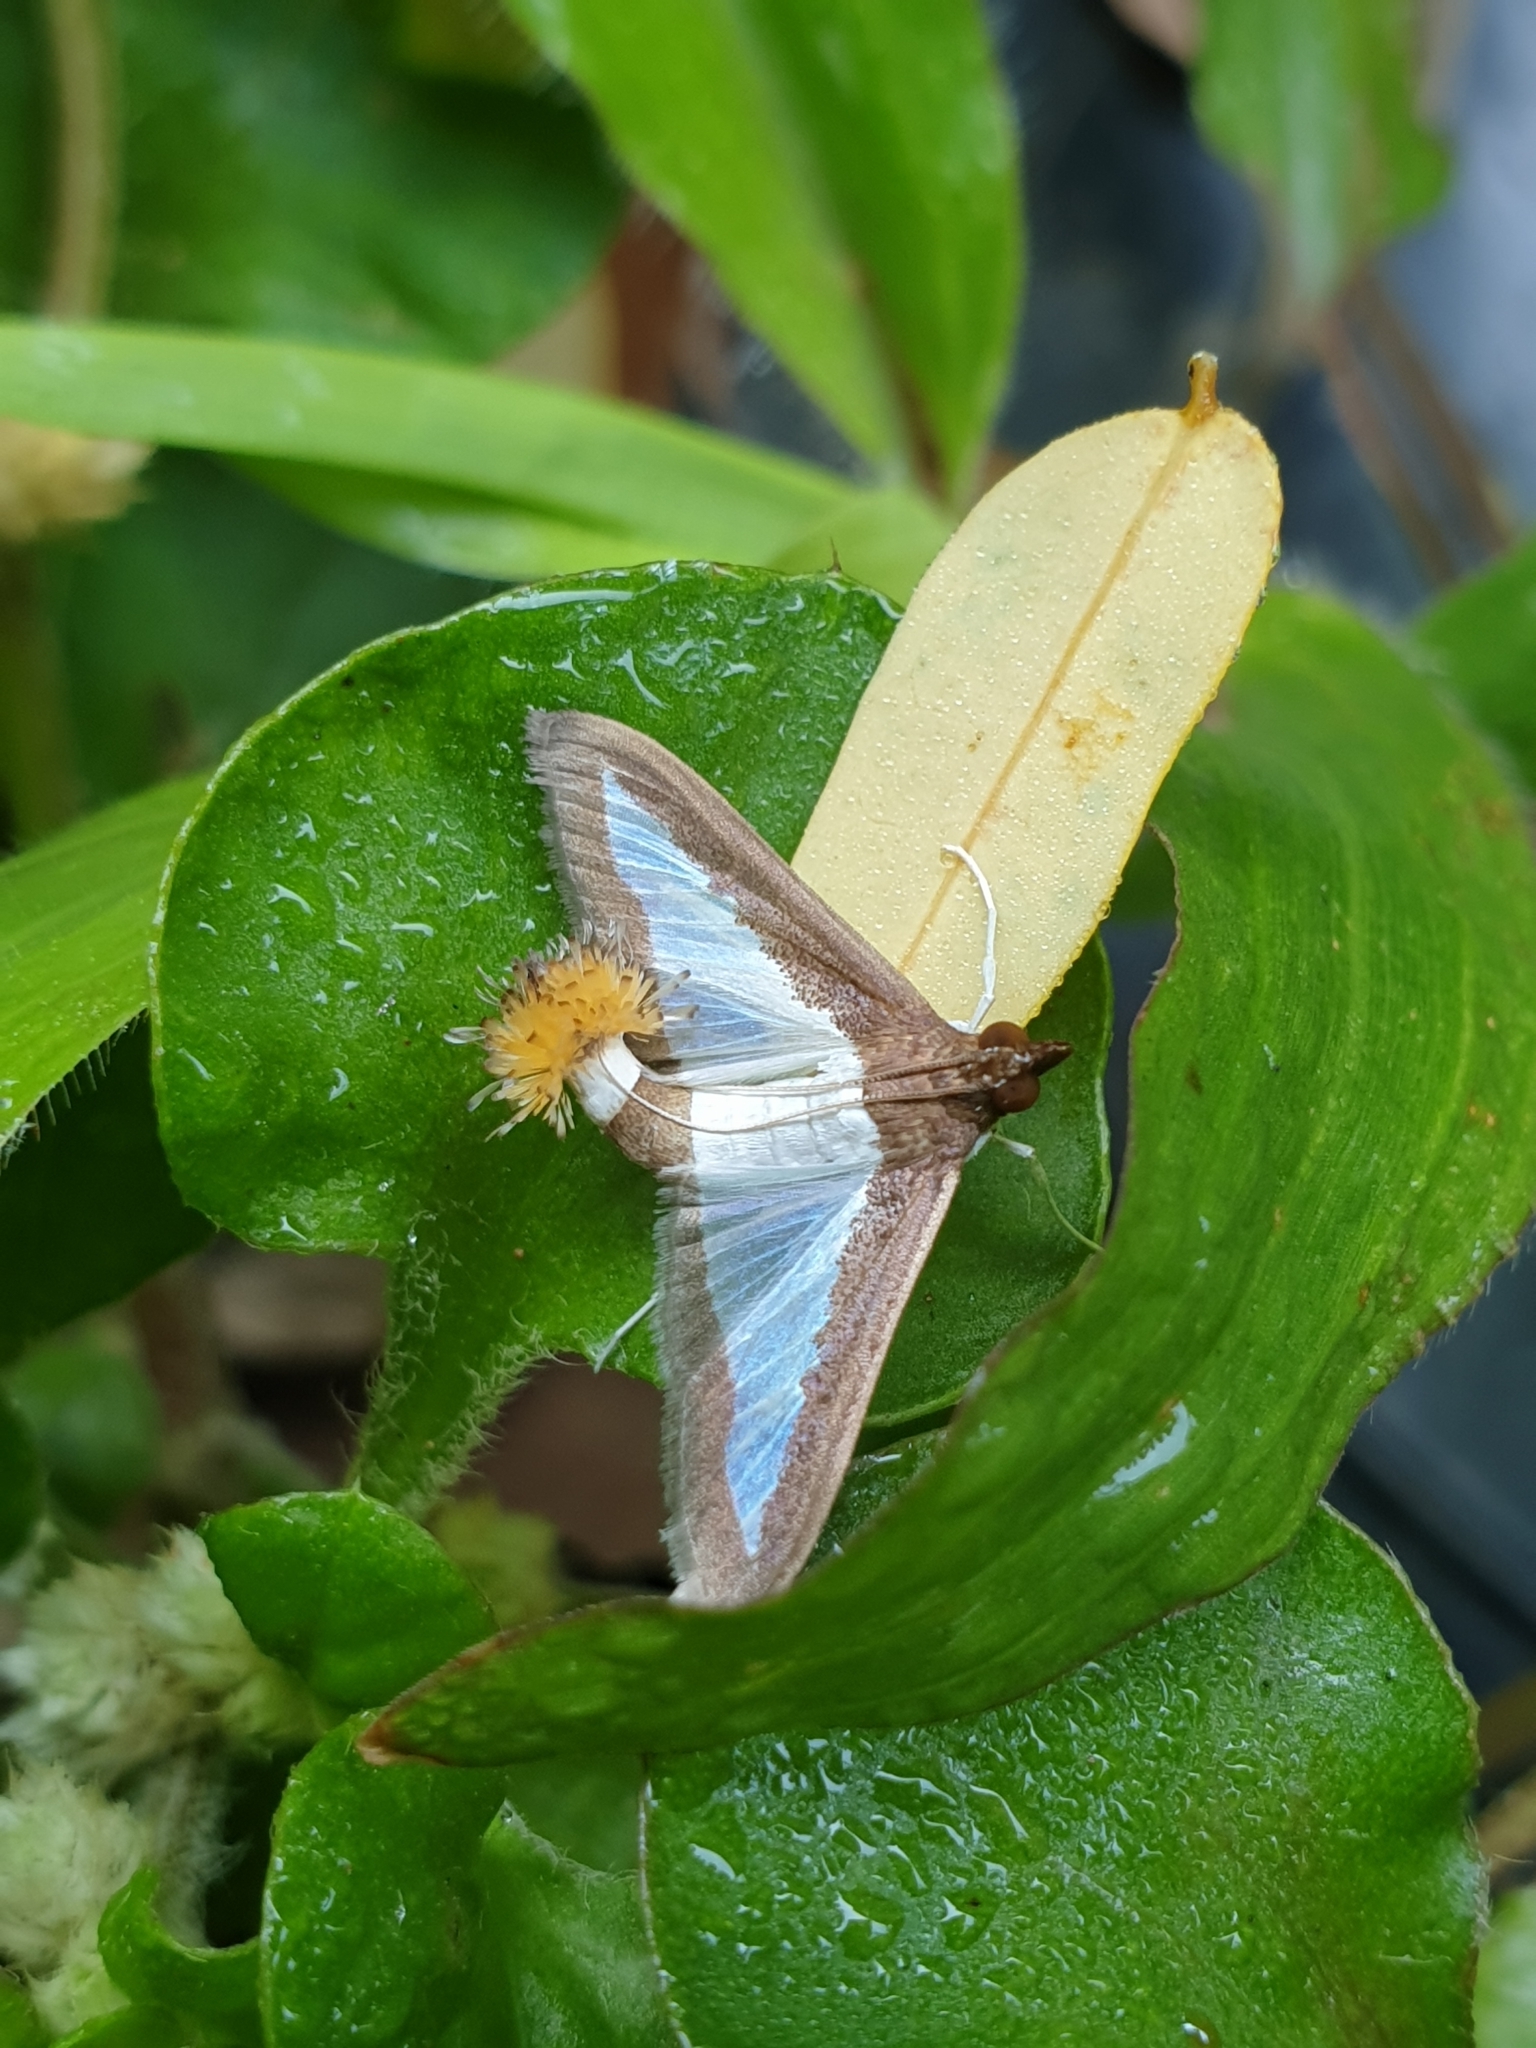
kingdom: Animalia
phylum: Arthropoda
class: Insecta
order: Lepidoptera
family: Crambidae
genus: Diaphania
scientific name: Diaphania indica
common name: Cucumber moth
